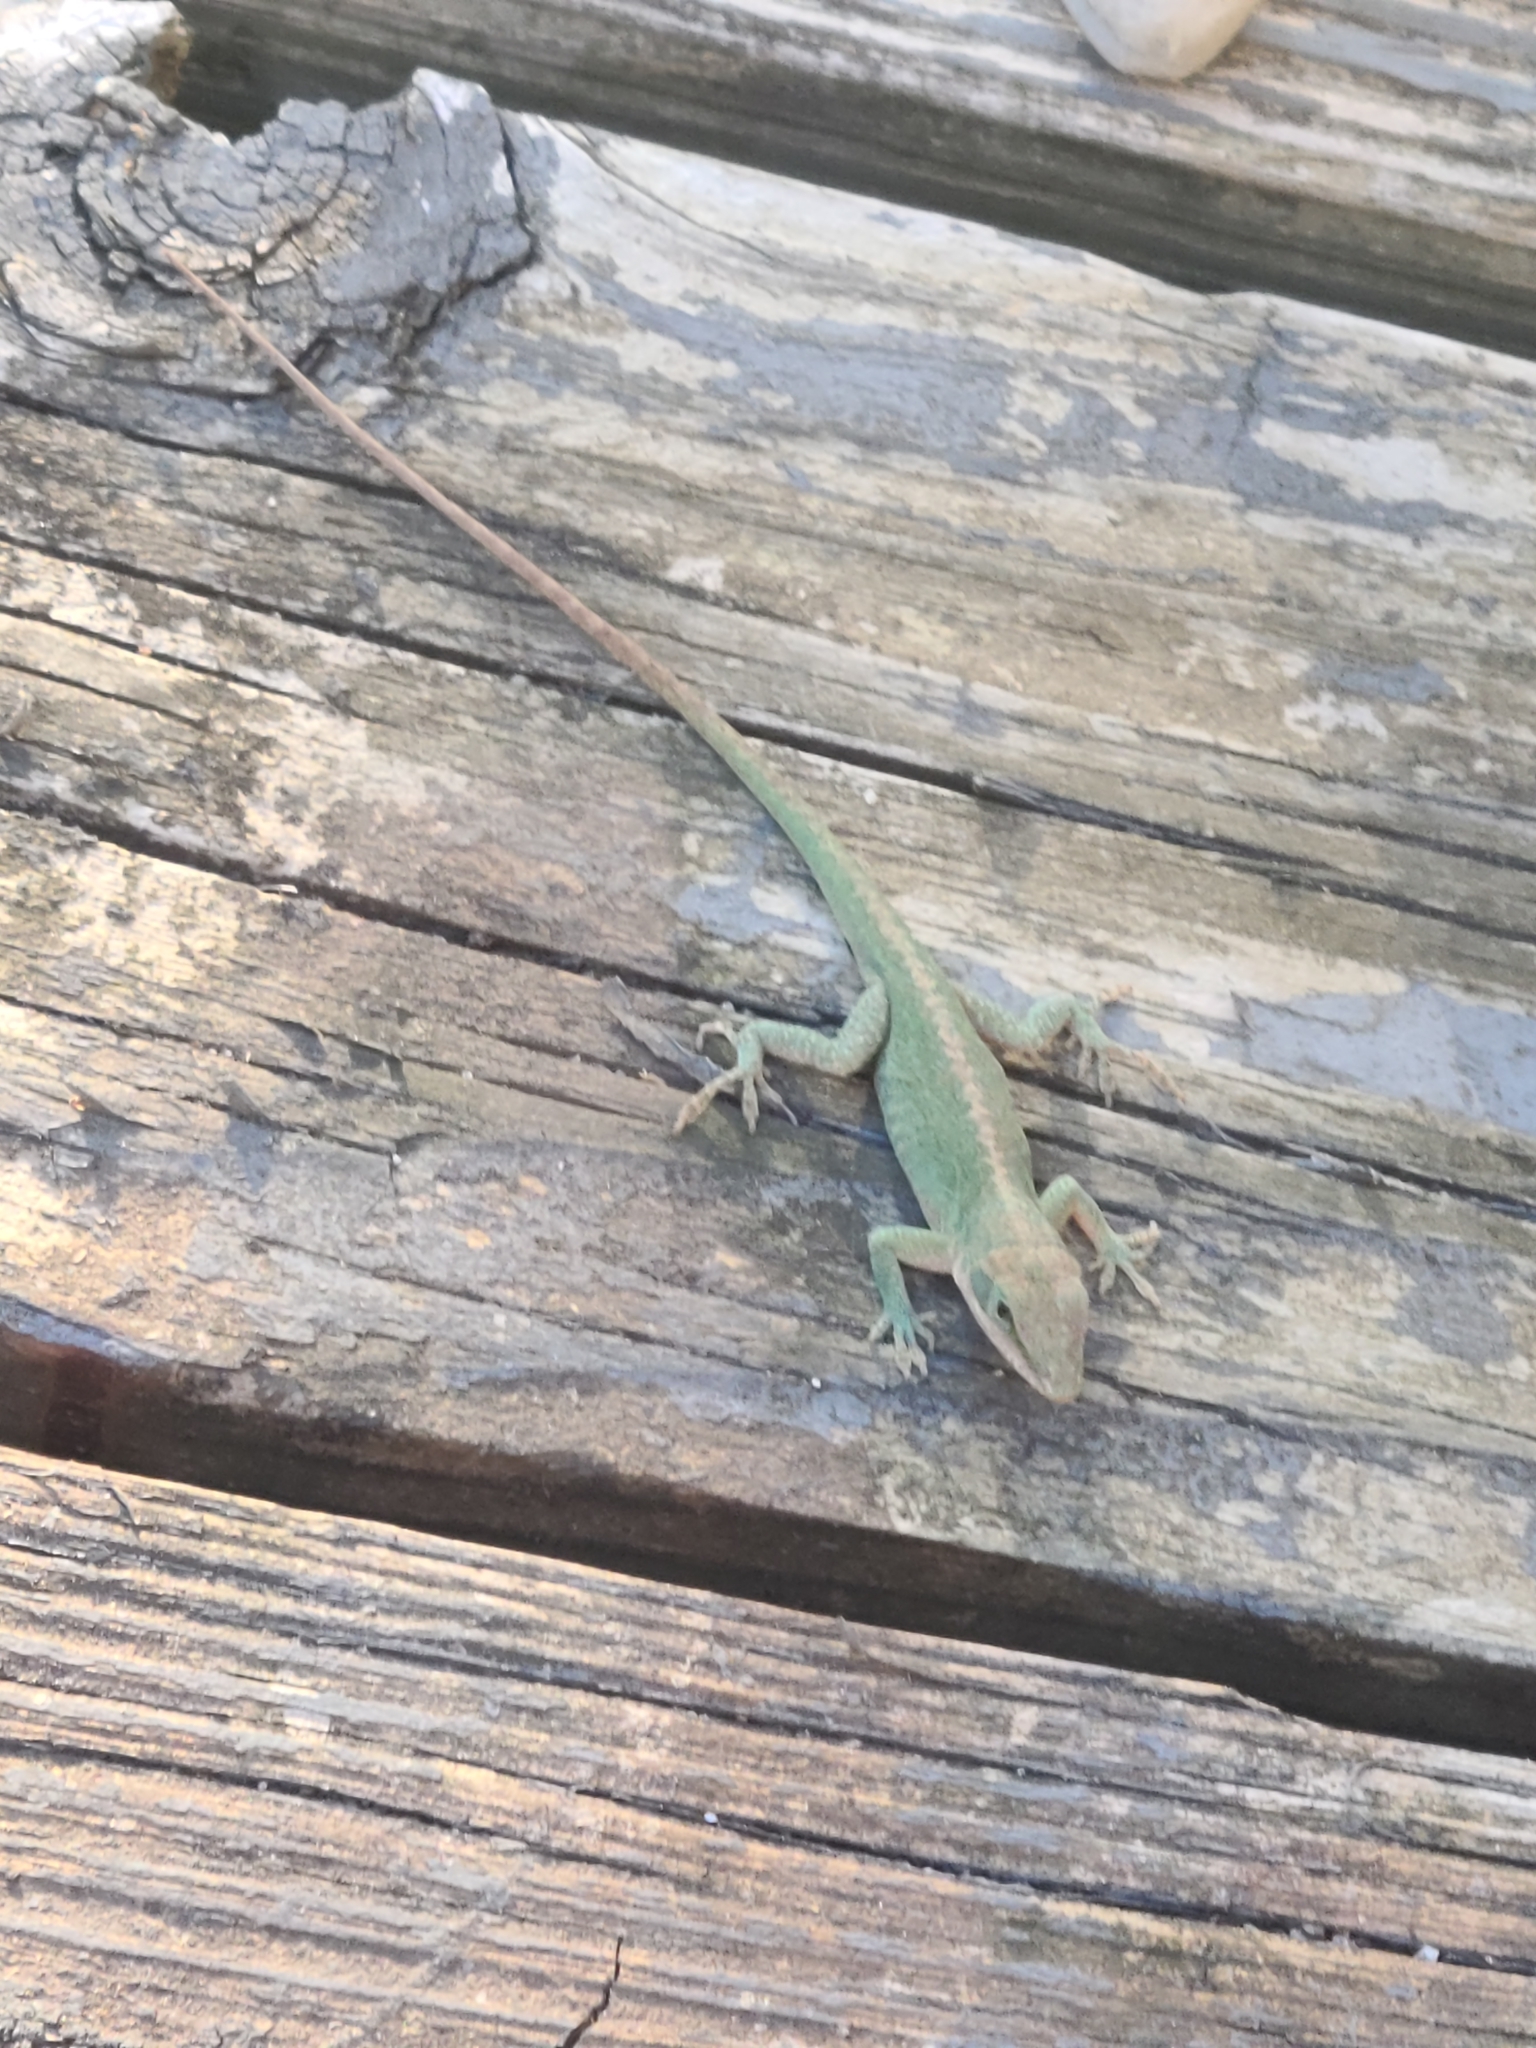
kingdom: Animalia
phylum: Chordata
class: Squamata
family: Dactyloidae
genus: Anolis
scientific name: Anolis carolinensis
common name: Green anole
